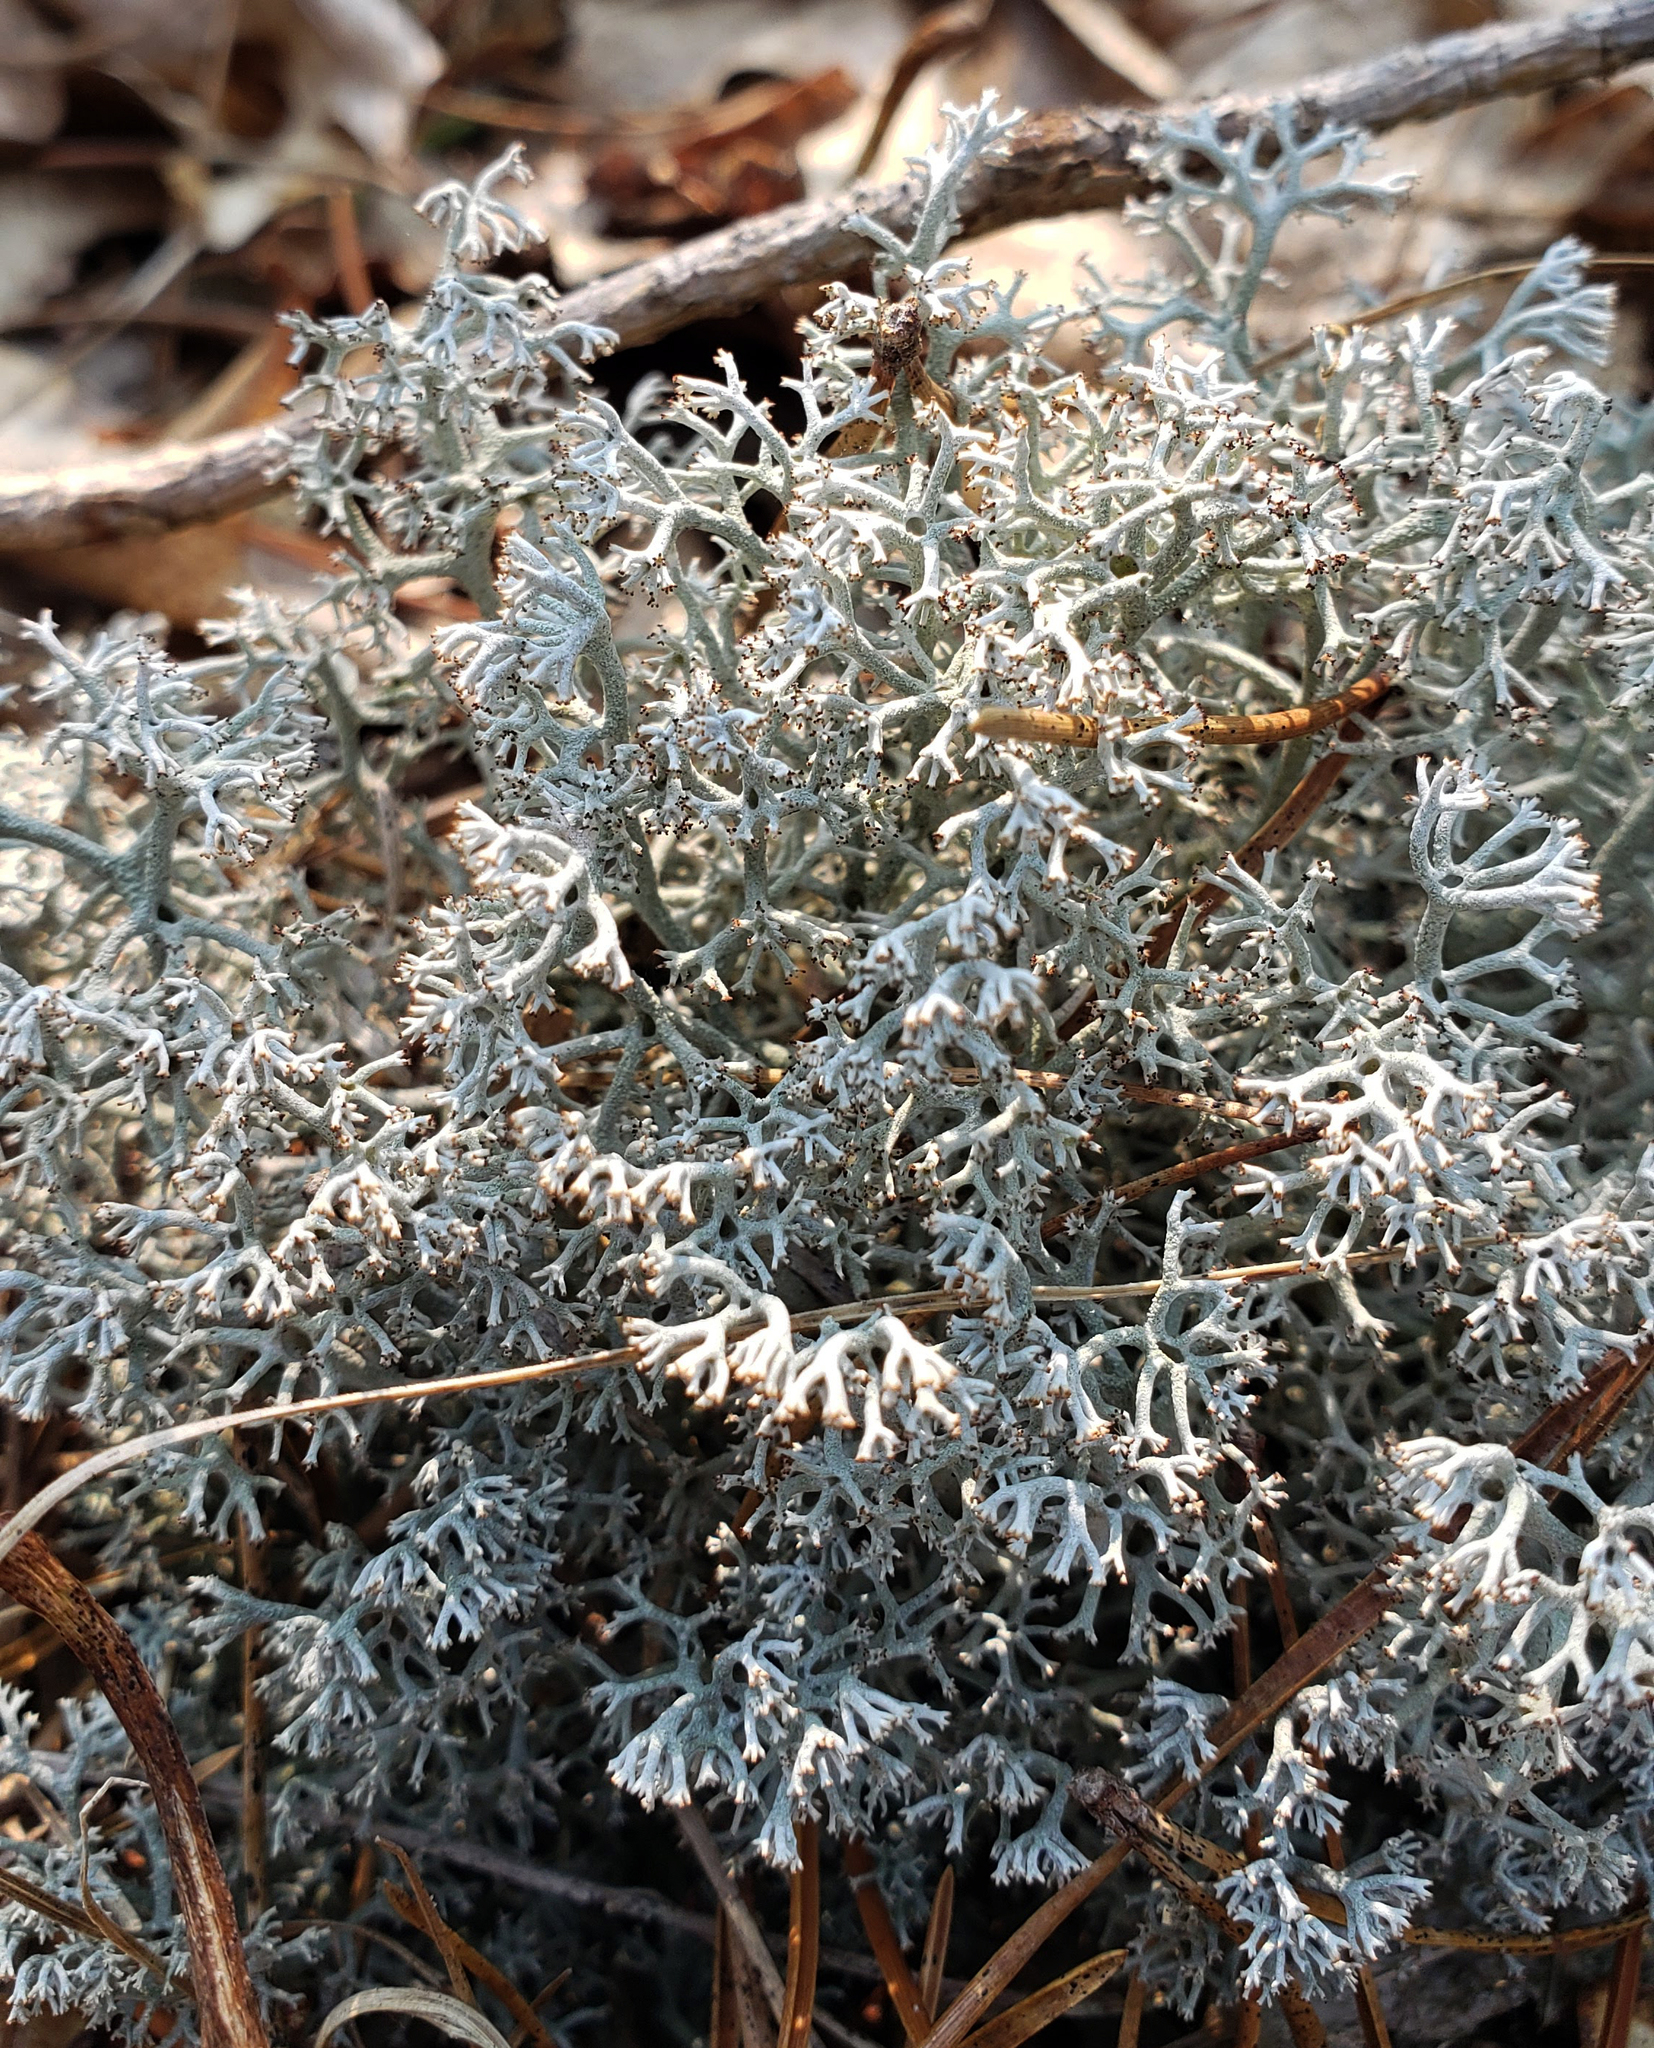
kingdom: Fungi
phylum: Ascomycota
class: Lecanoromycetes
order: Lecanorales
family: Cladoniaceae
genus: Cladonia
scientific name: Cladonia rangiferina
